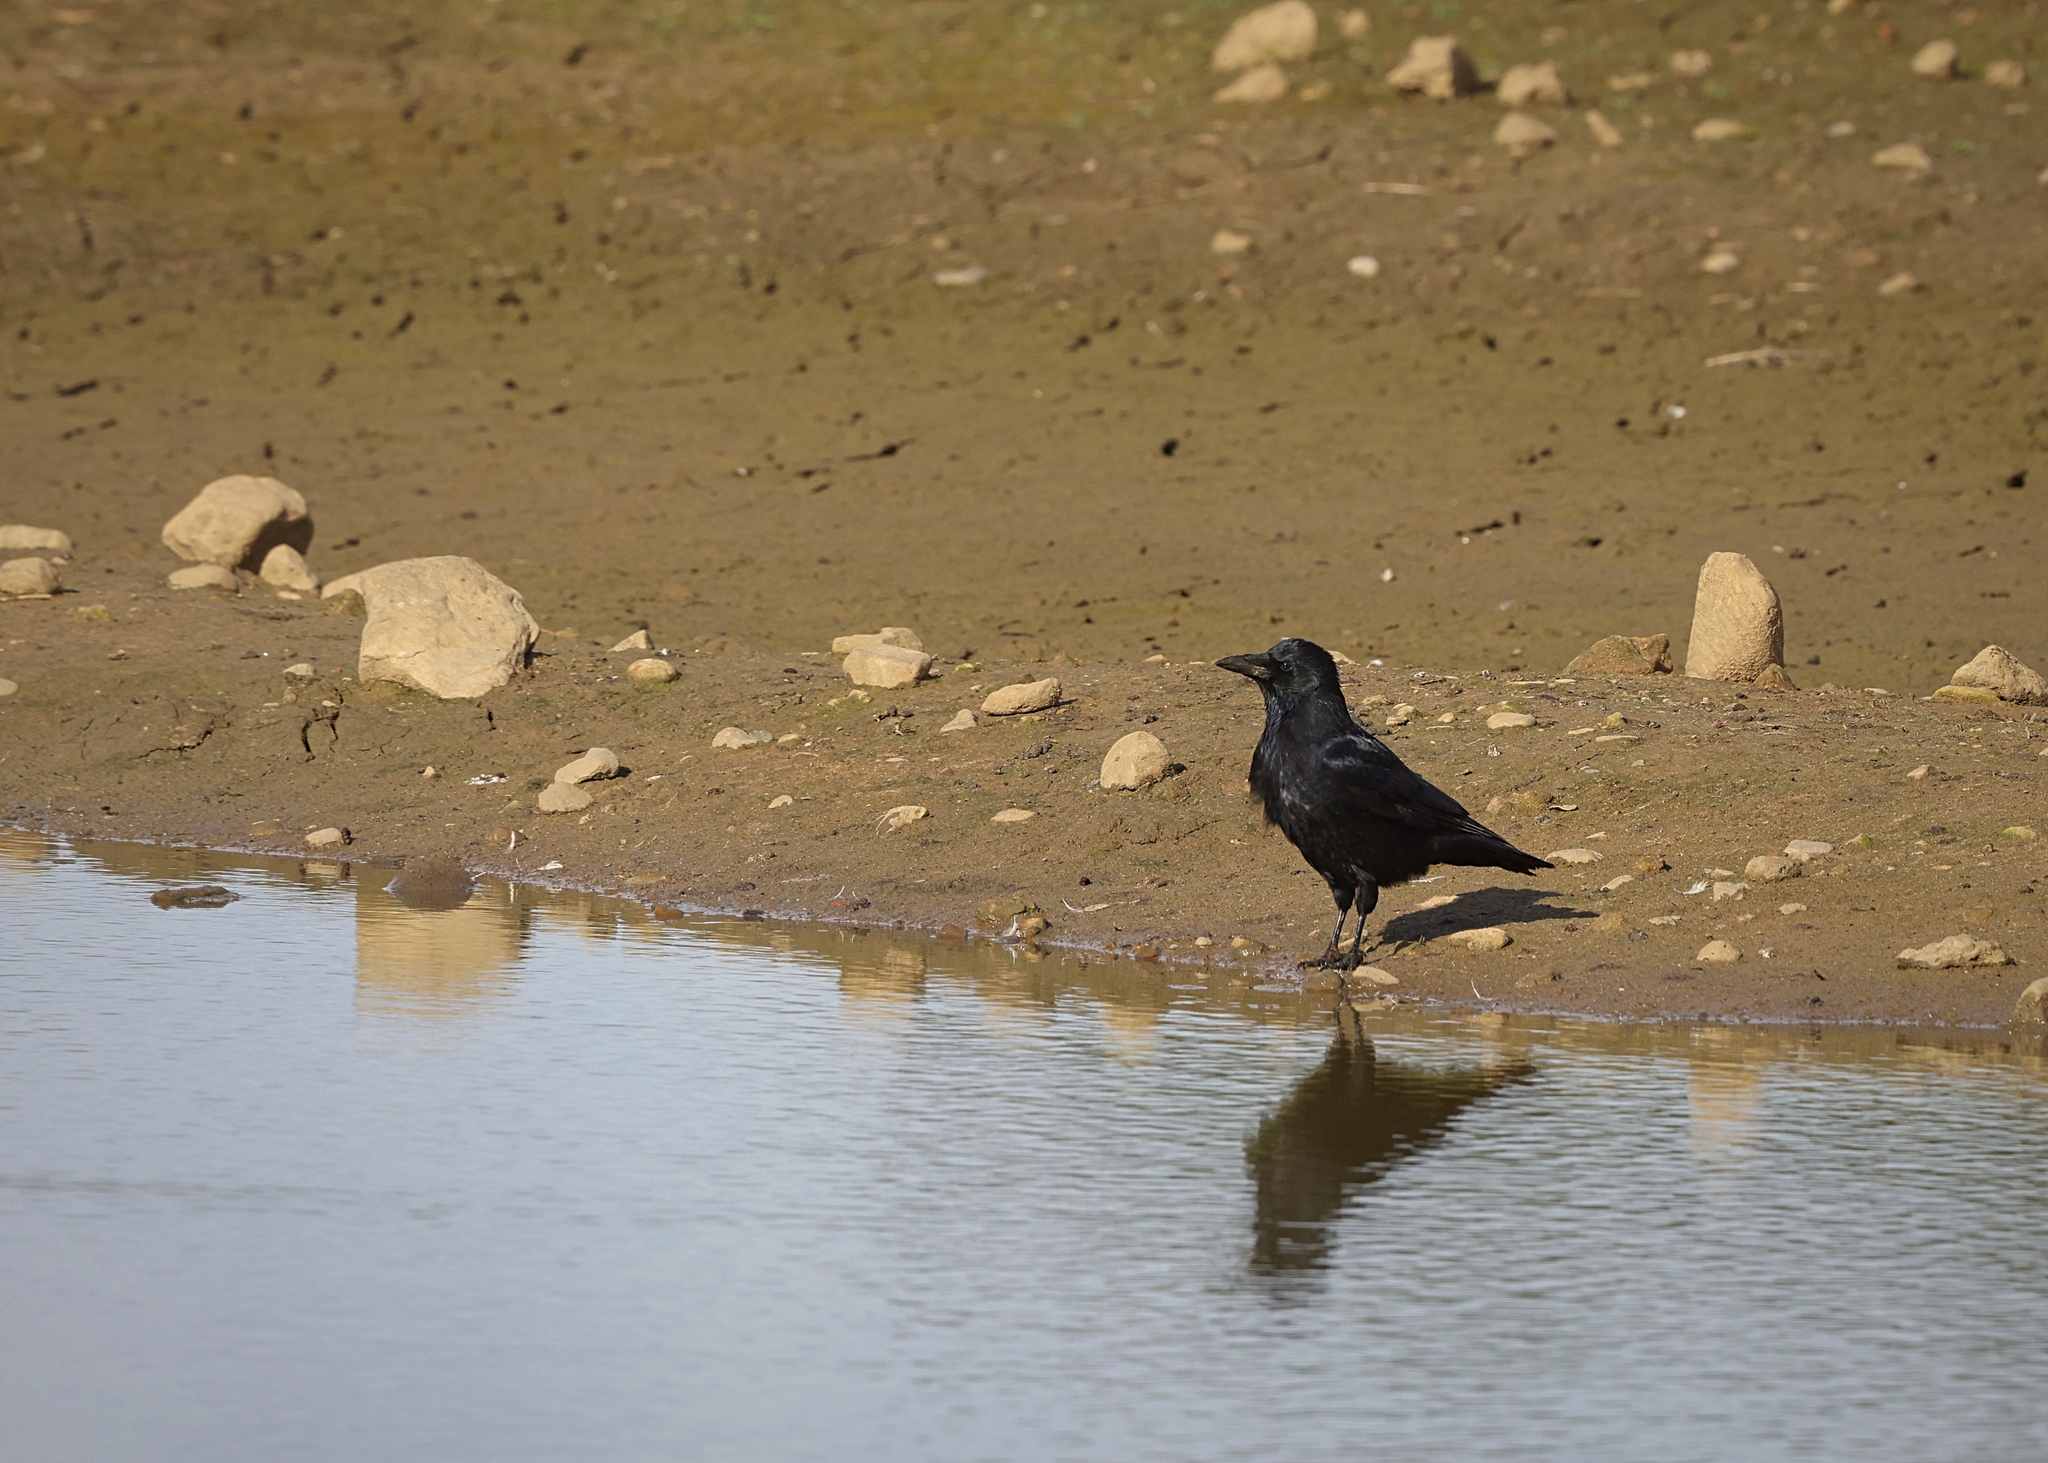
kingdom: Animalia
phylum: Chordata
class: Aves
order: Passeriformes
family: Corvidae
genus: Corvus
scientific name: Corvus corone
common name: Carrion crow
